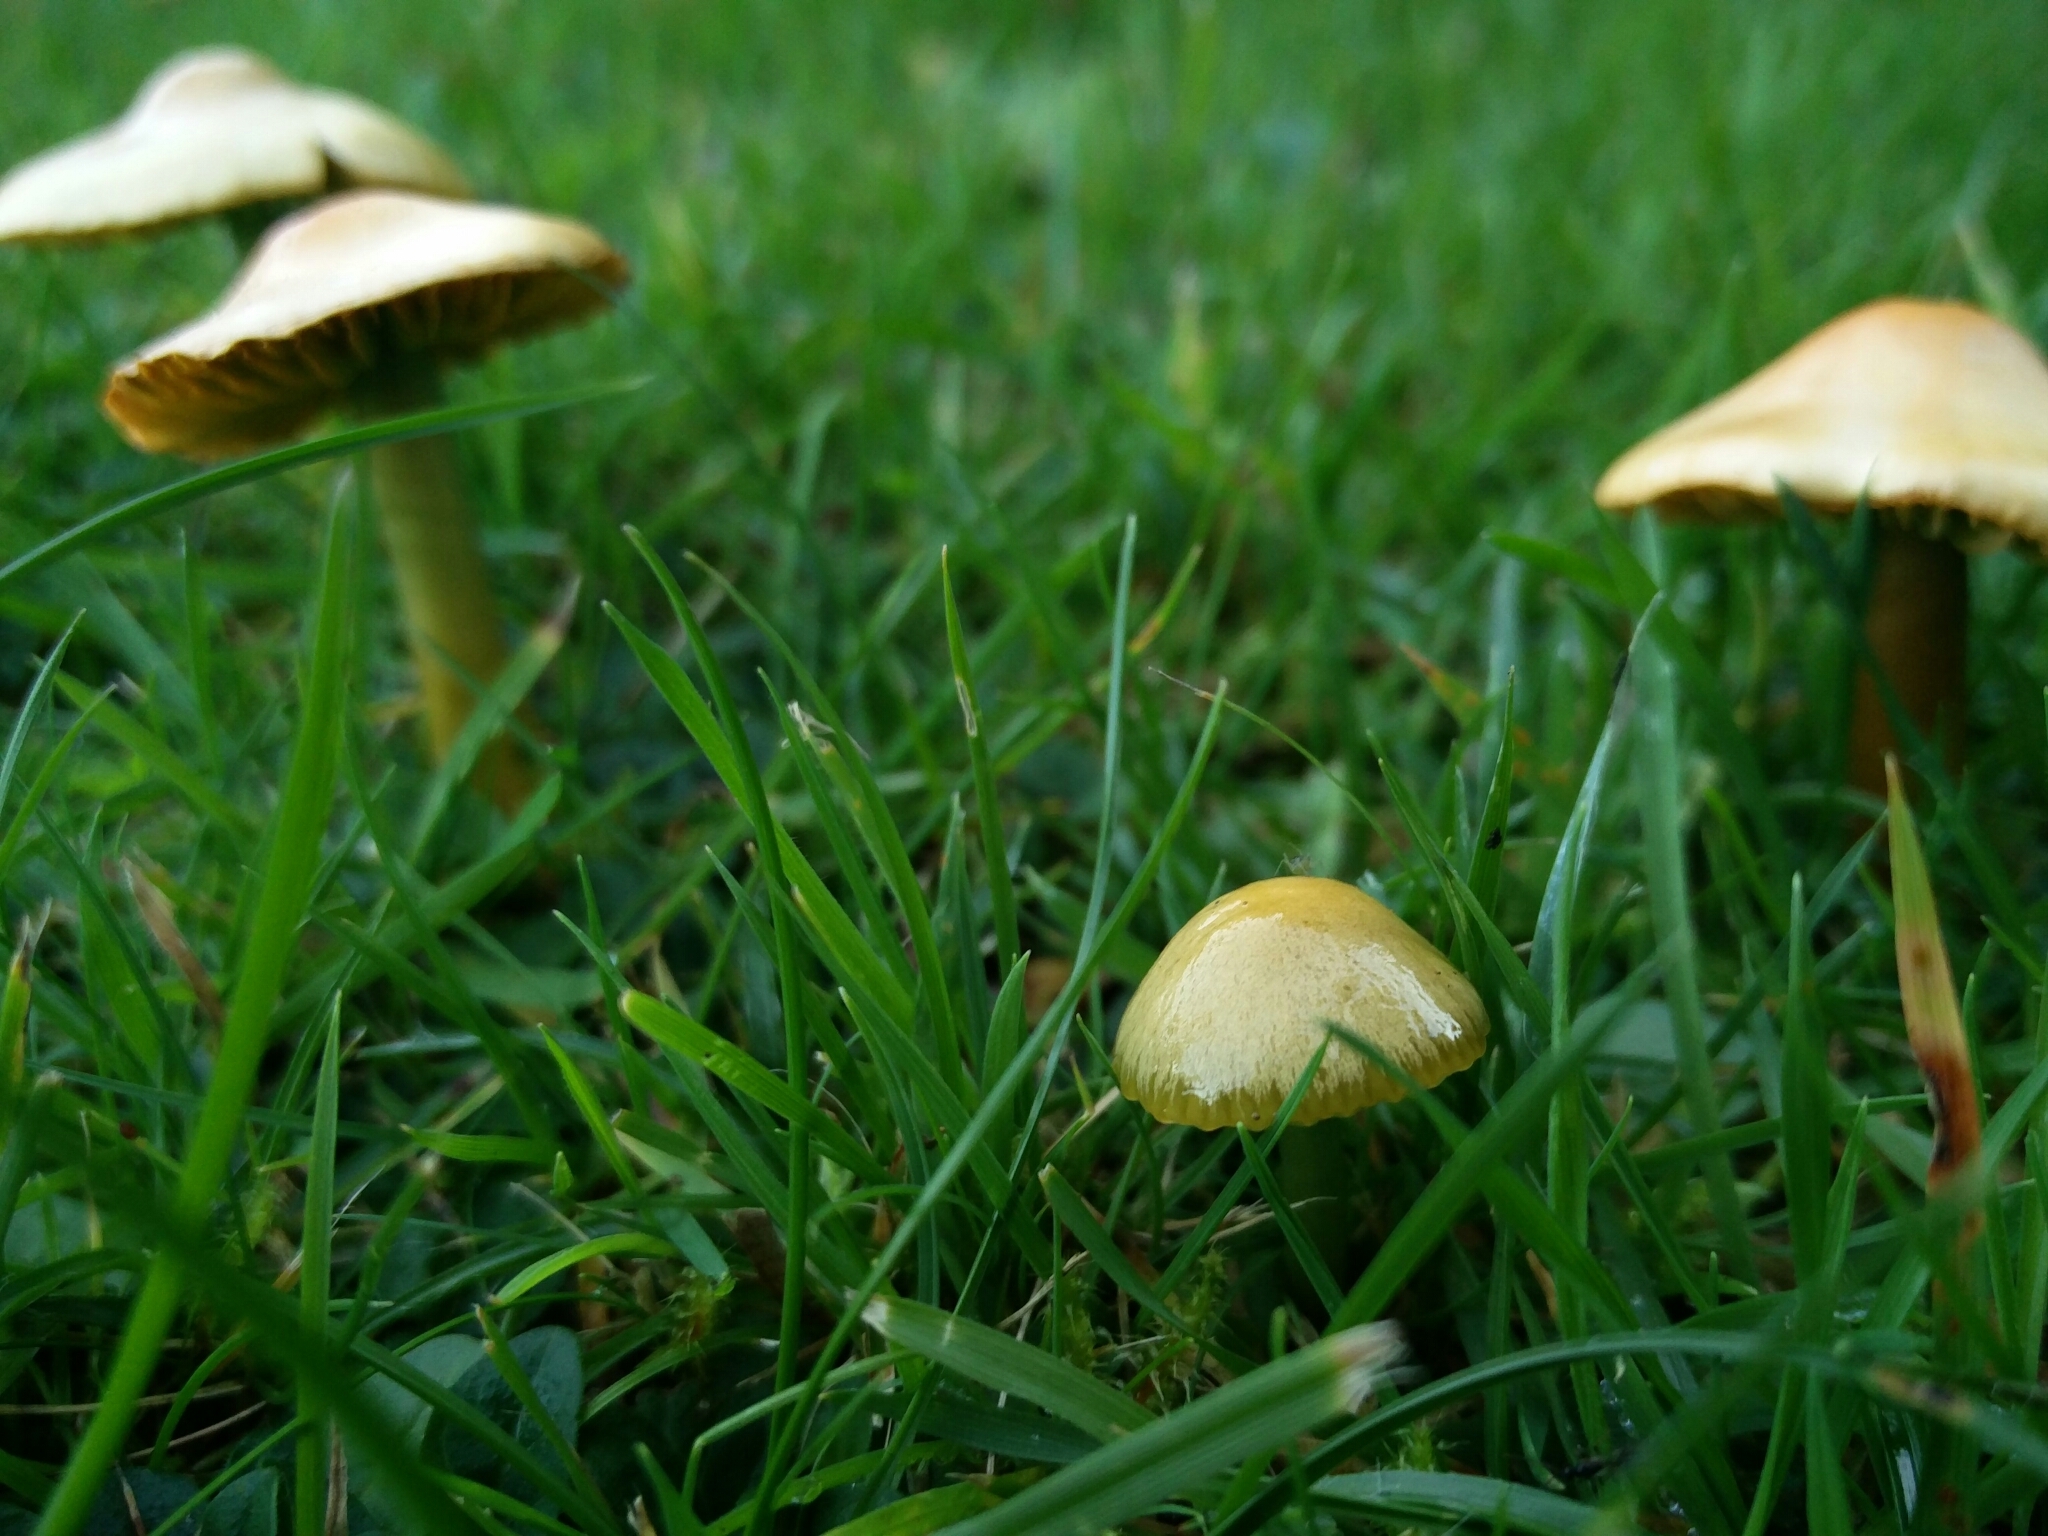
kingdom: Fungi
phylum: Basidiomycota
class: Agaricomycetes
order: Agaricales
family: Hygrophoraceae
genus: Gliophorus
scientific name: Gliophorus psittacinus
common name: Parrot wax-cap
